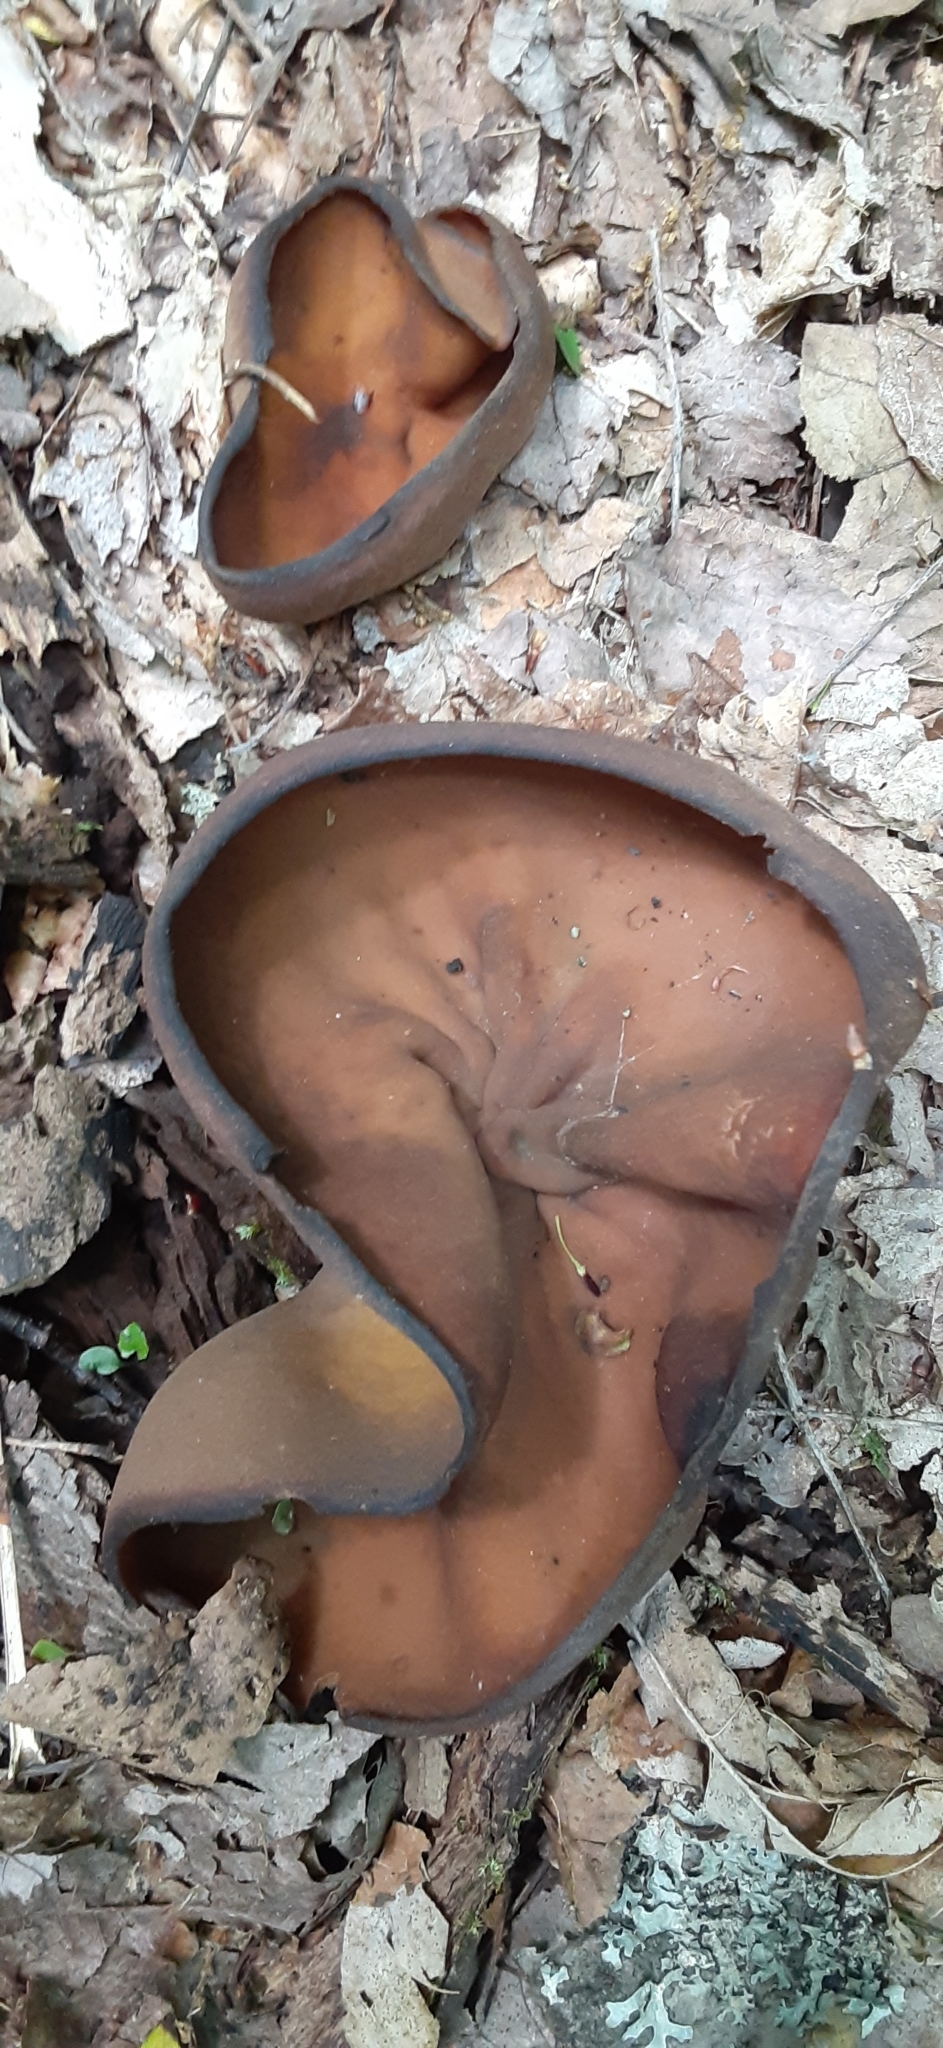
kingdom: Fungi
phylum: Ascomycota
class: Pezizomycetes
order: Pezizales
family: Pezizaceae
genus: Phylloscypha
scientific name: Phylloscypha phyllogena
